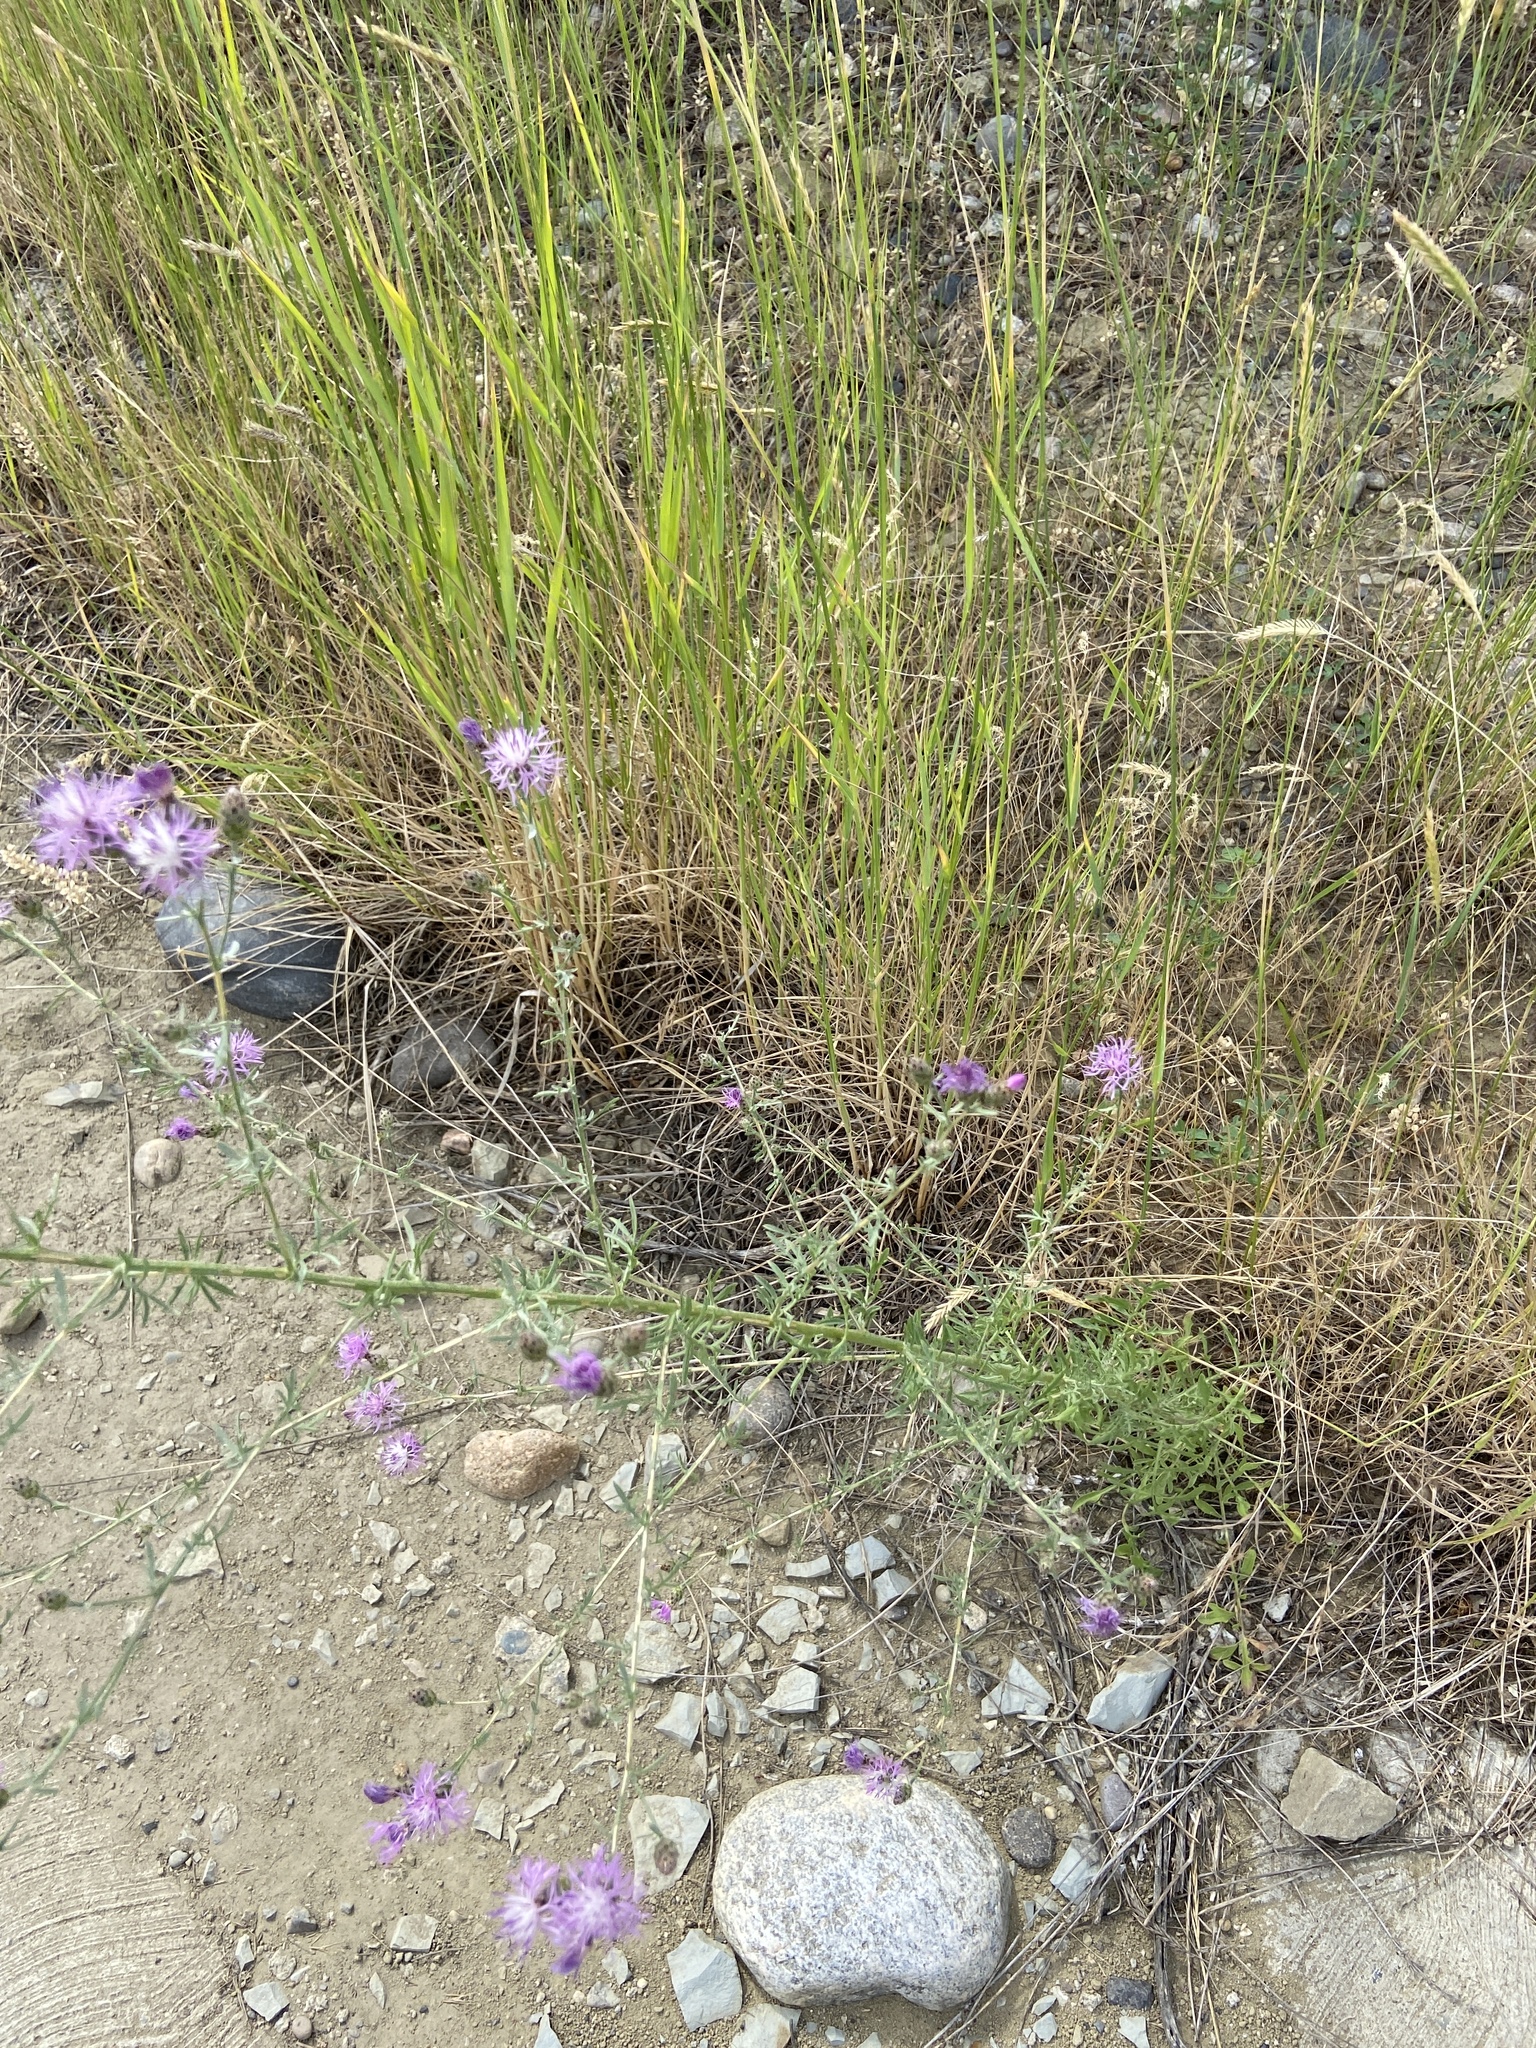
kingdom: Plantae
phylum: Tracheophyta
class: Magnoliopsida
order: Asterales
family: Asteraceae
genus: Centaurea
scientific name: Centaurea stoebe
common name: Spotted knapweed
